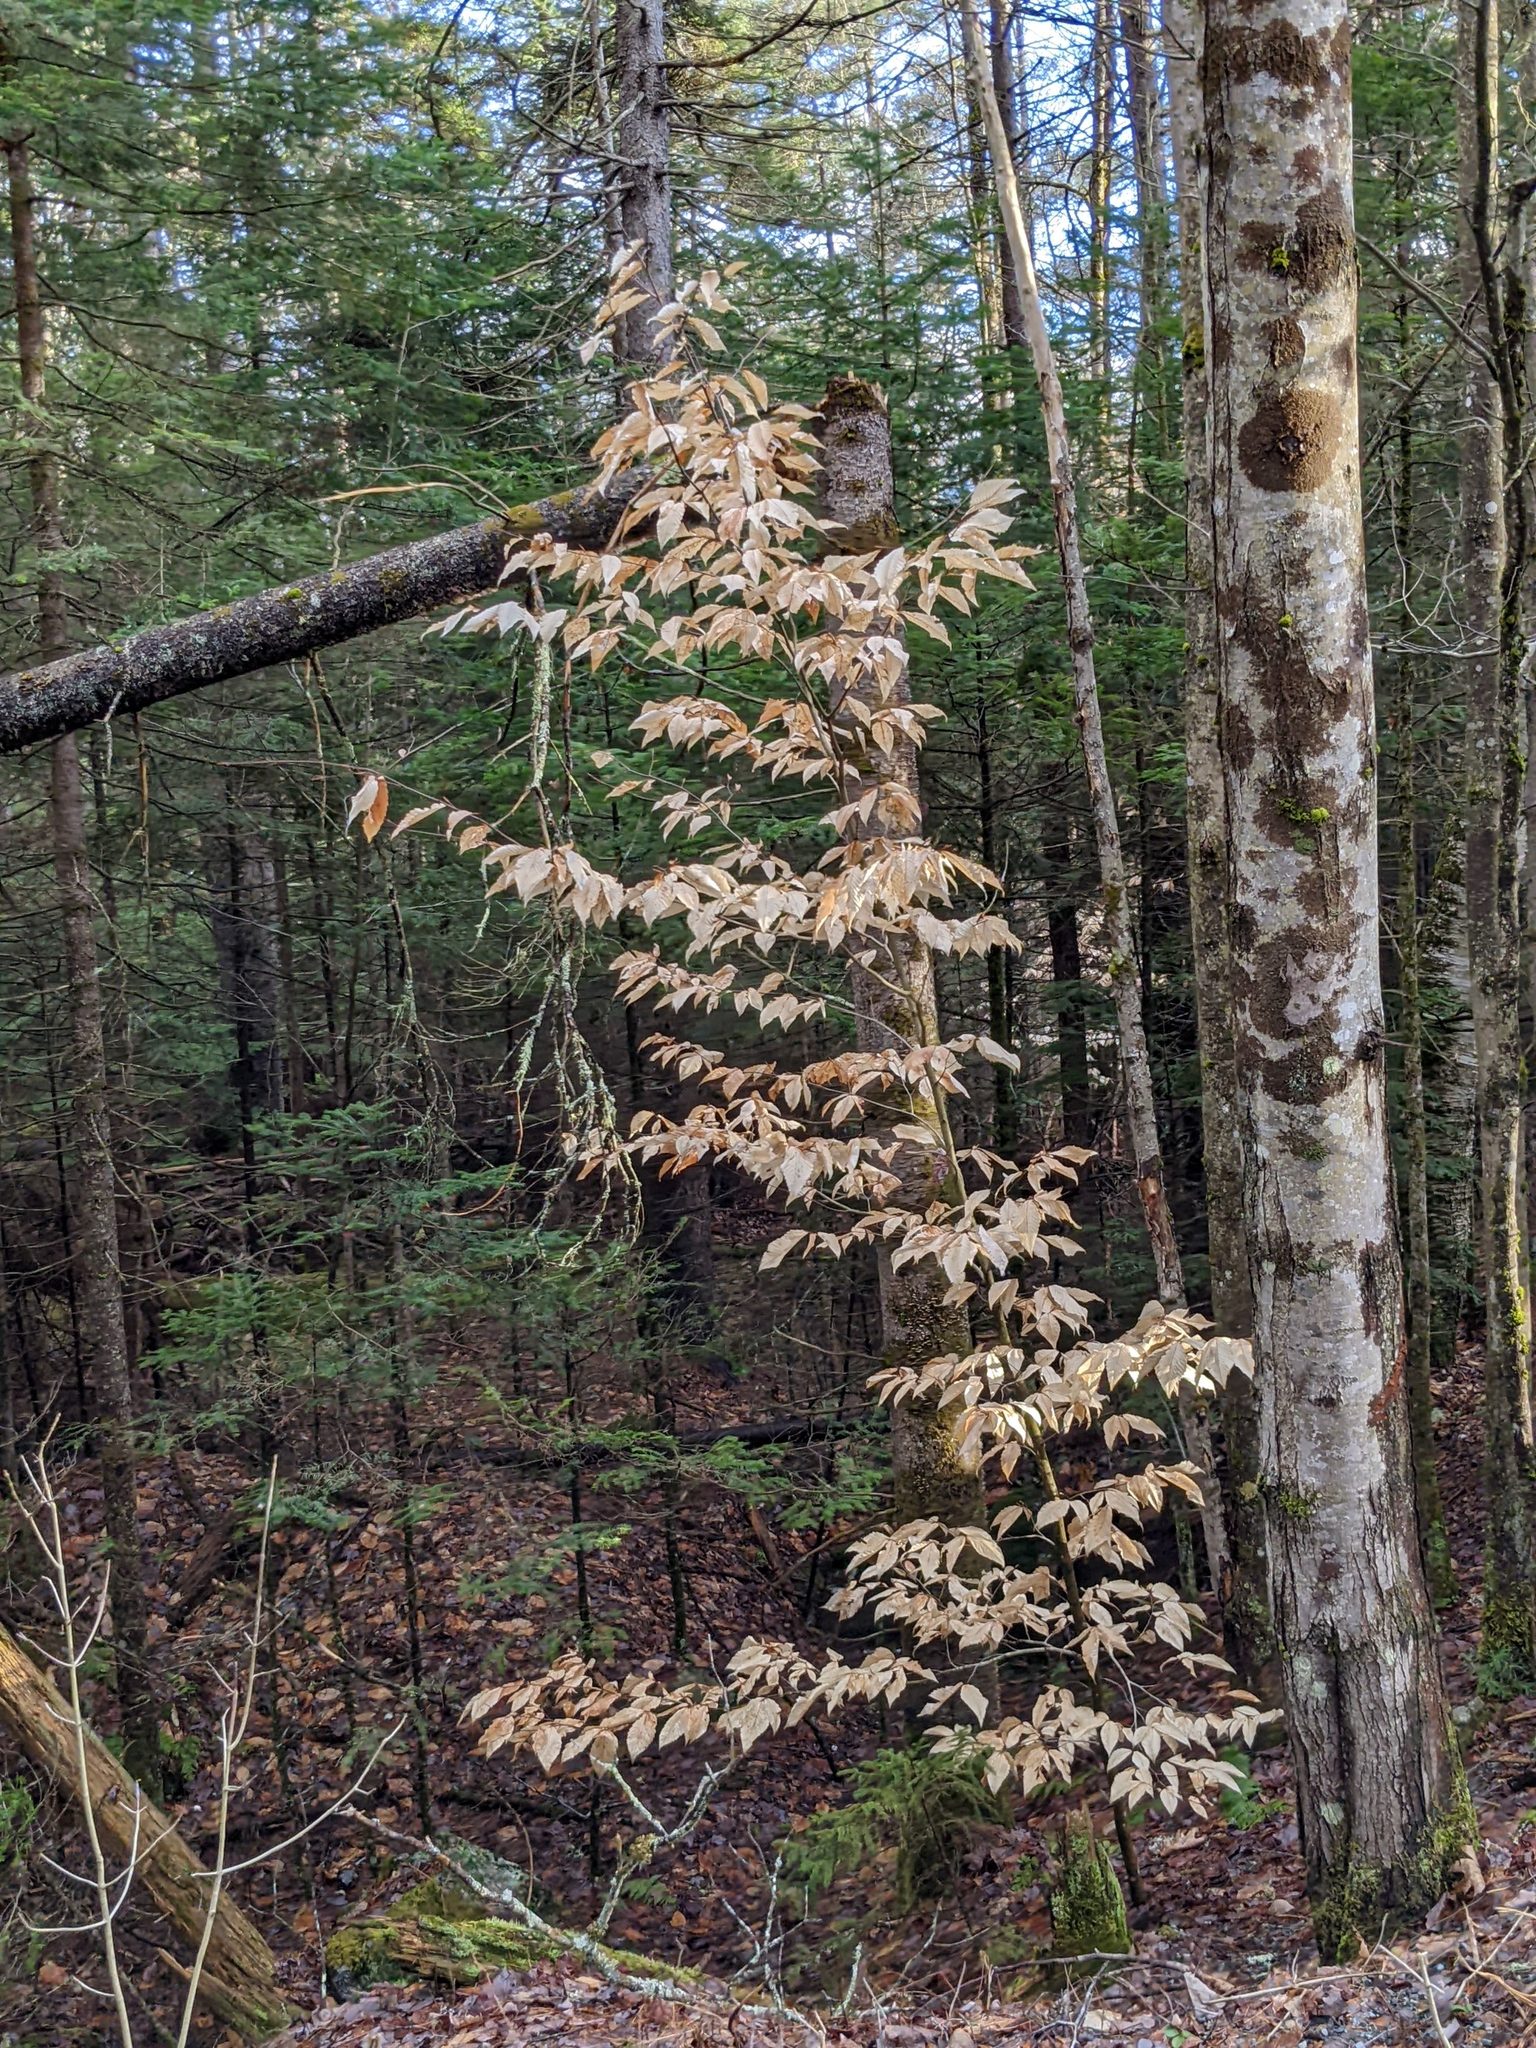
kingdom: Plantae
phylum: Tracheophyta
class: Magnoliopsida
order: Fagales
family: Fagaceae
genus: Fagus
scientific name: Fagus grandifolia
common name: American beech
